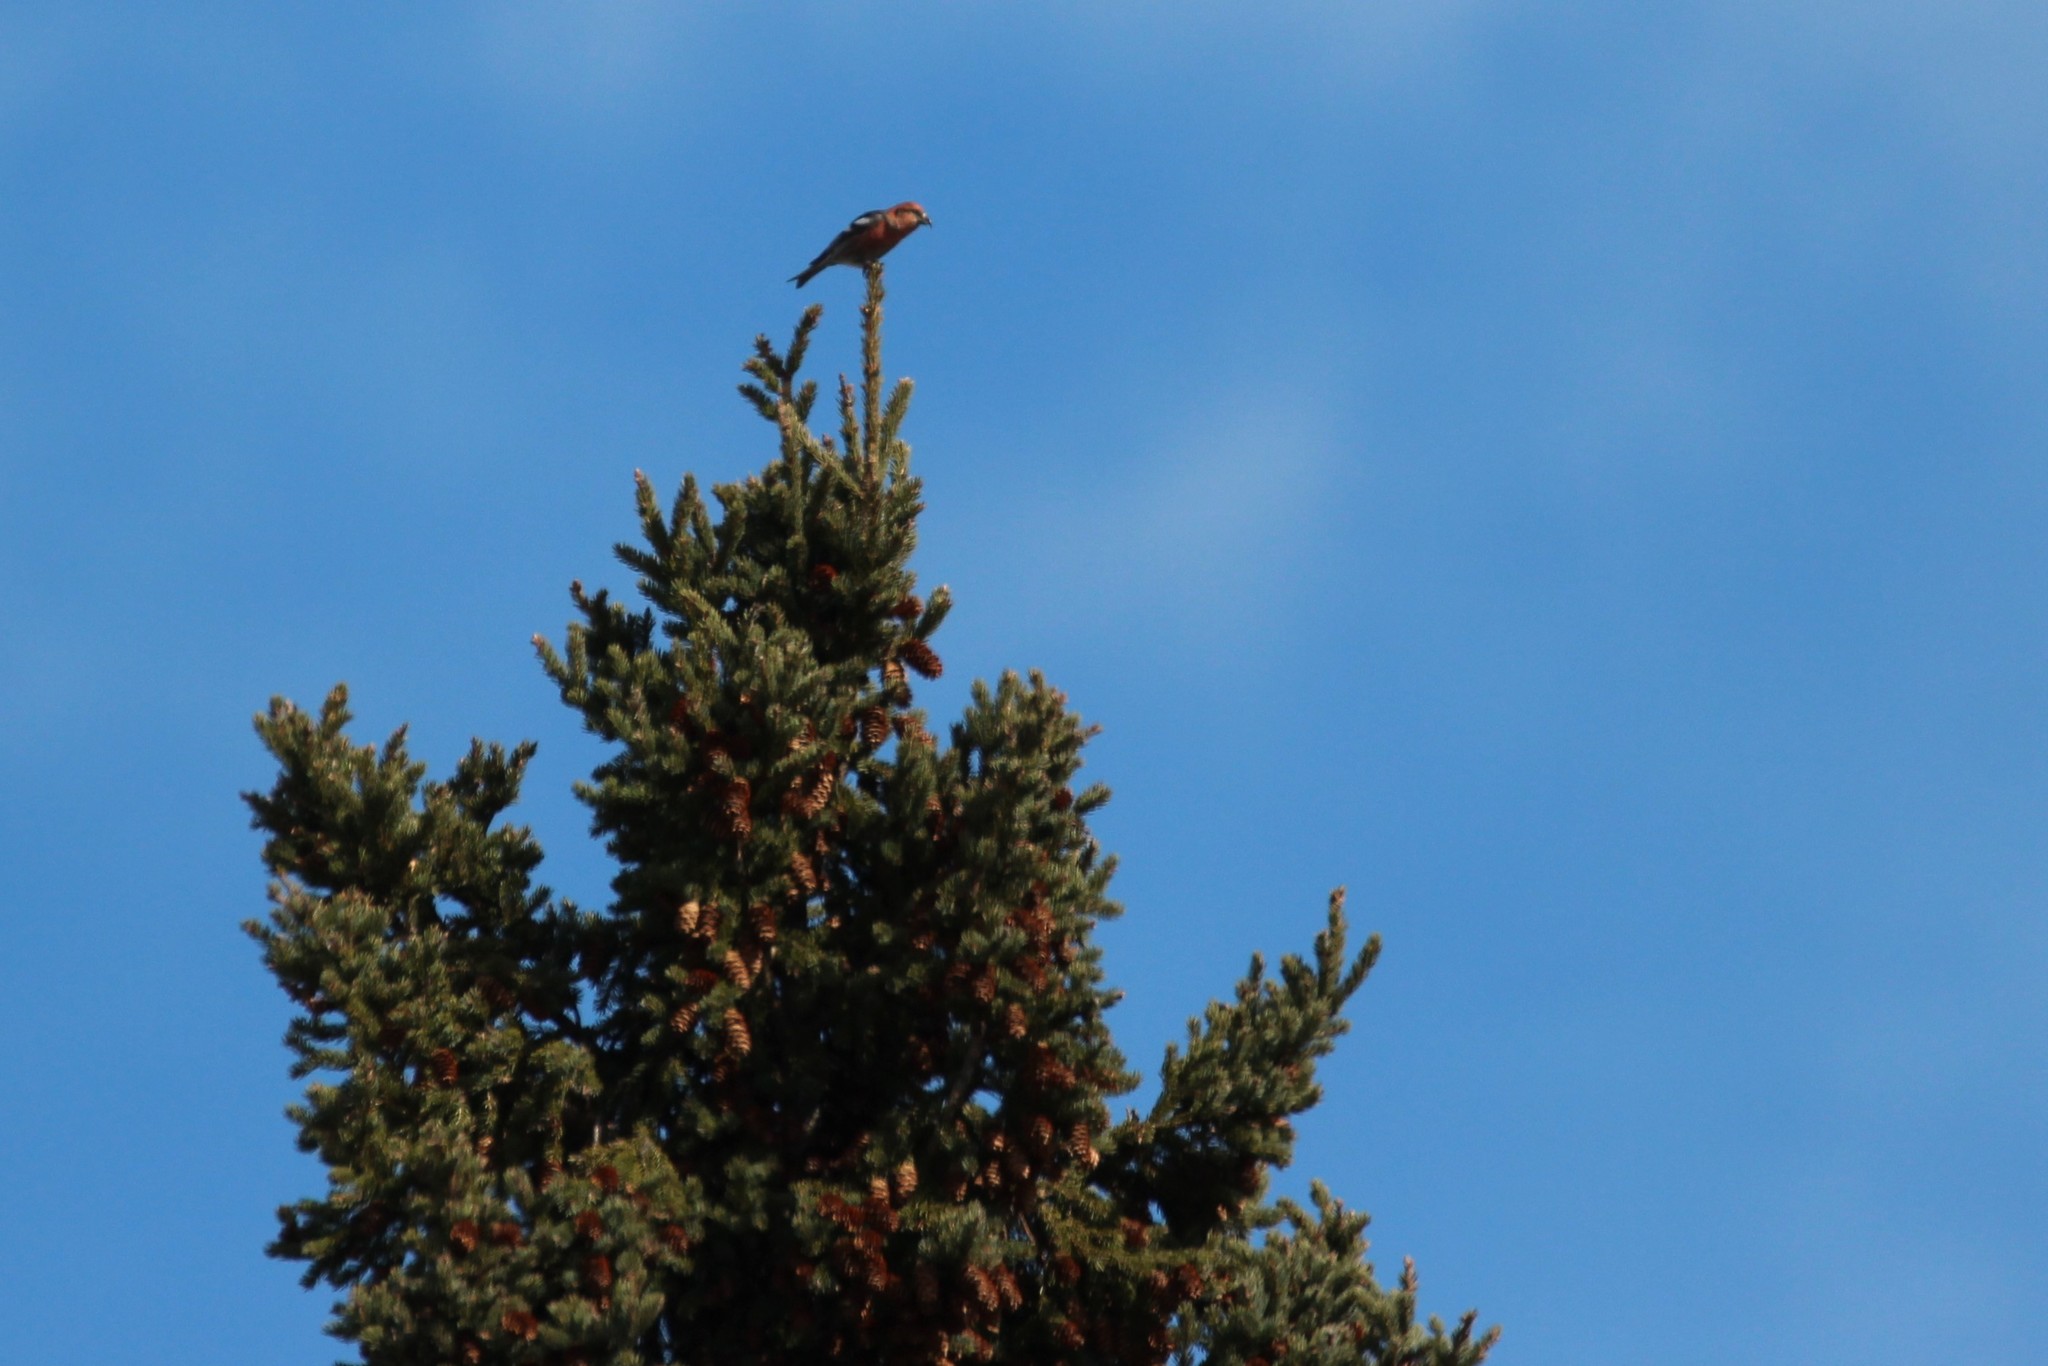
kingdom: Animalia
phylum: Chordata
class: Aves
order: Passeriformes
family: Fringillidae
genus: Loxia
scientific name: Loxia leucoptera
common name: Two-barred crossbill
